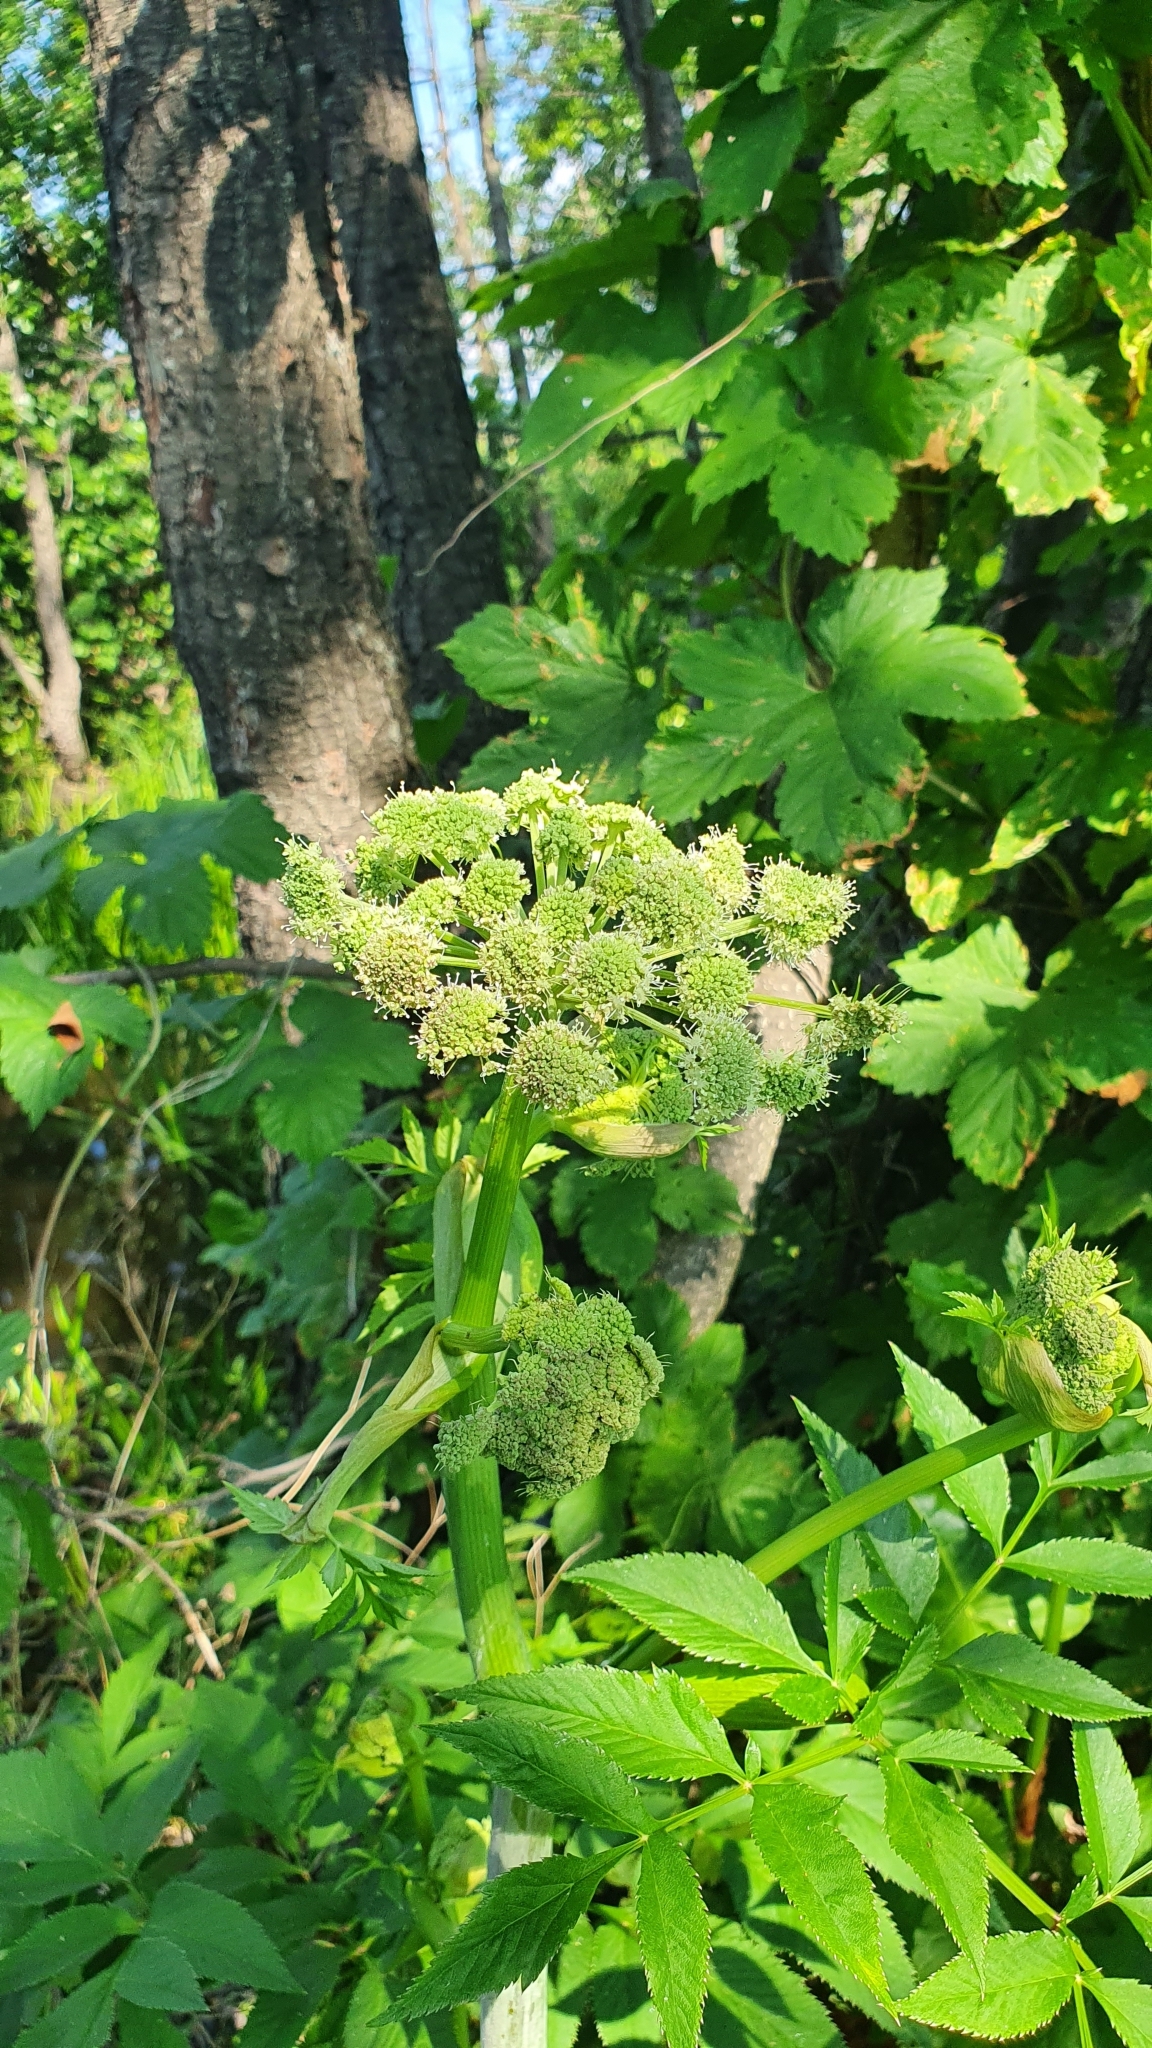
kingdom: Plantae
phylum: Tracheophyta
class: Magnoliopsida
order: Apiales
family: Apiaceae
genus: Angelica
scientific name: Angelica sylvestris
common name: Wild angelica
